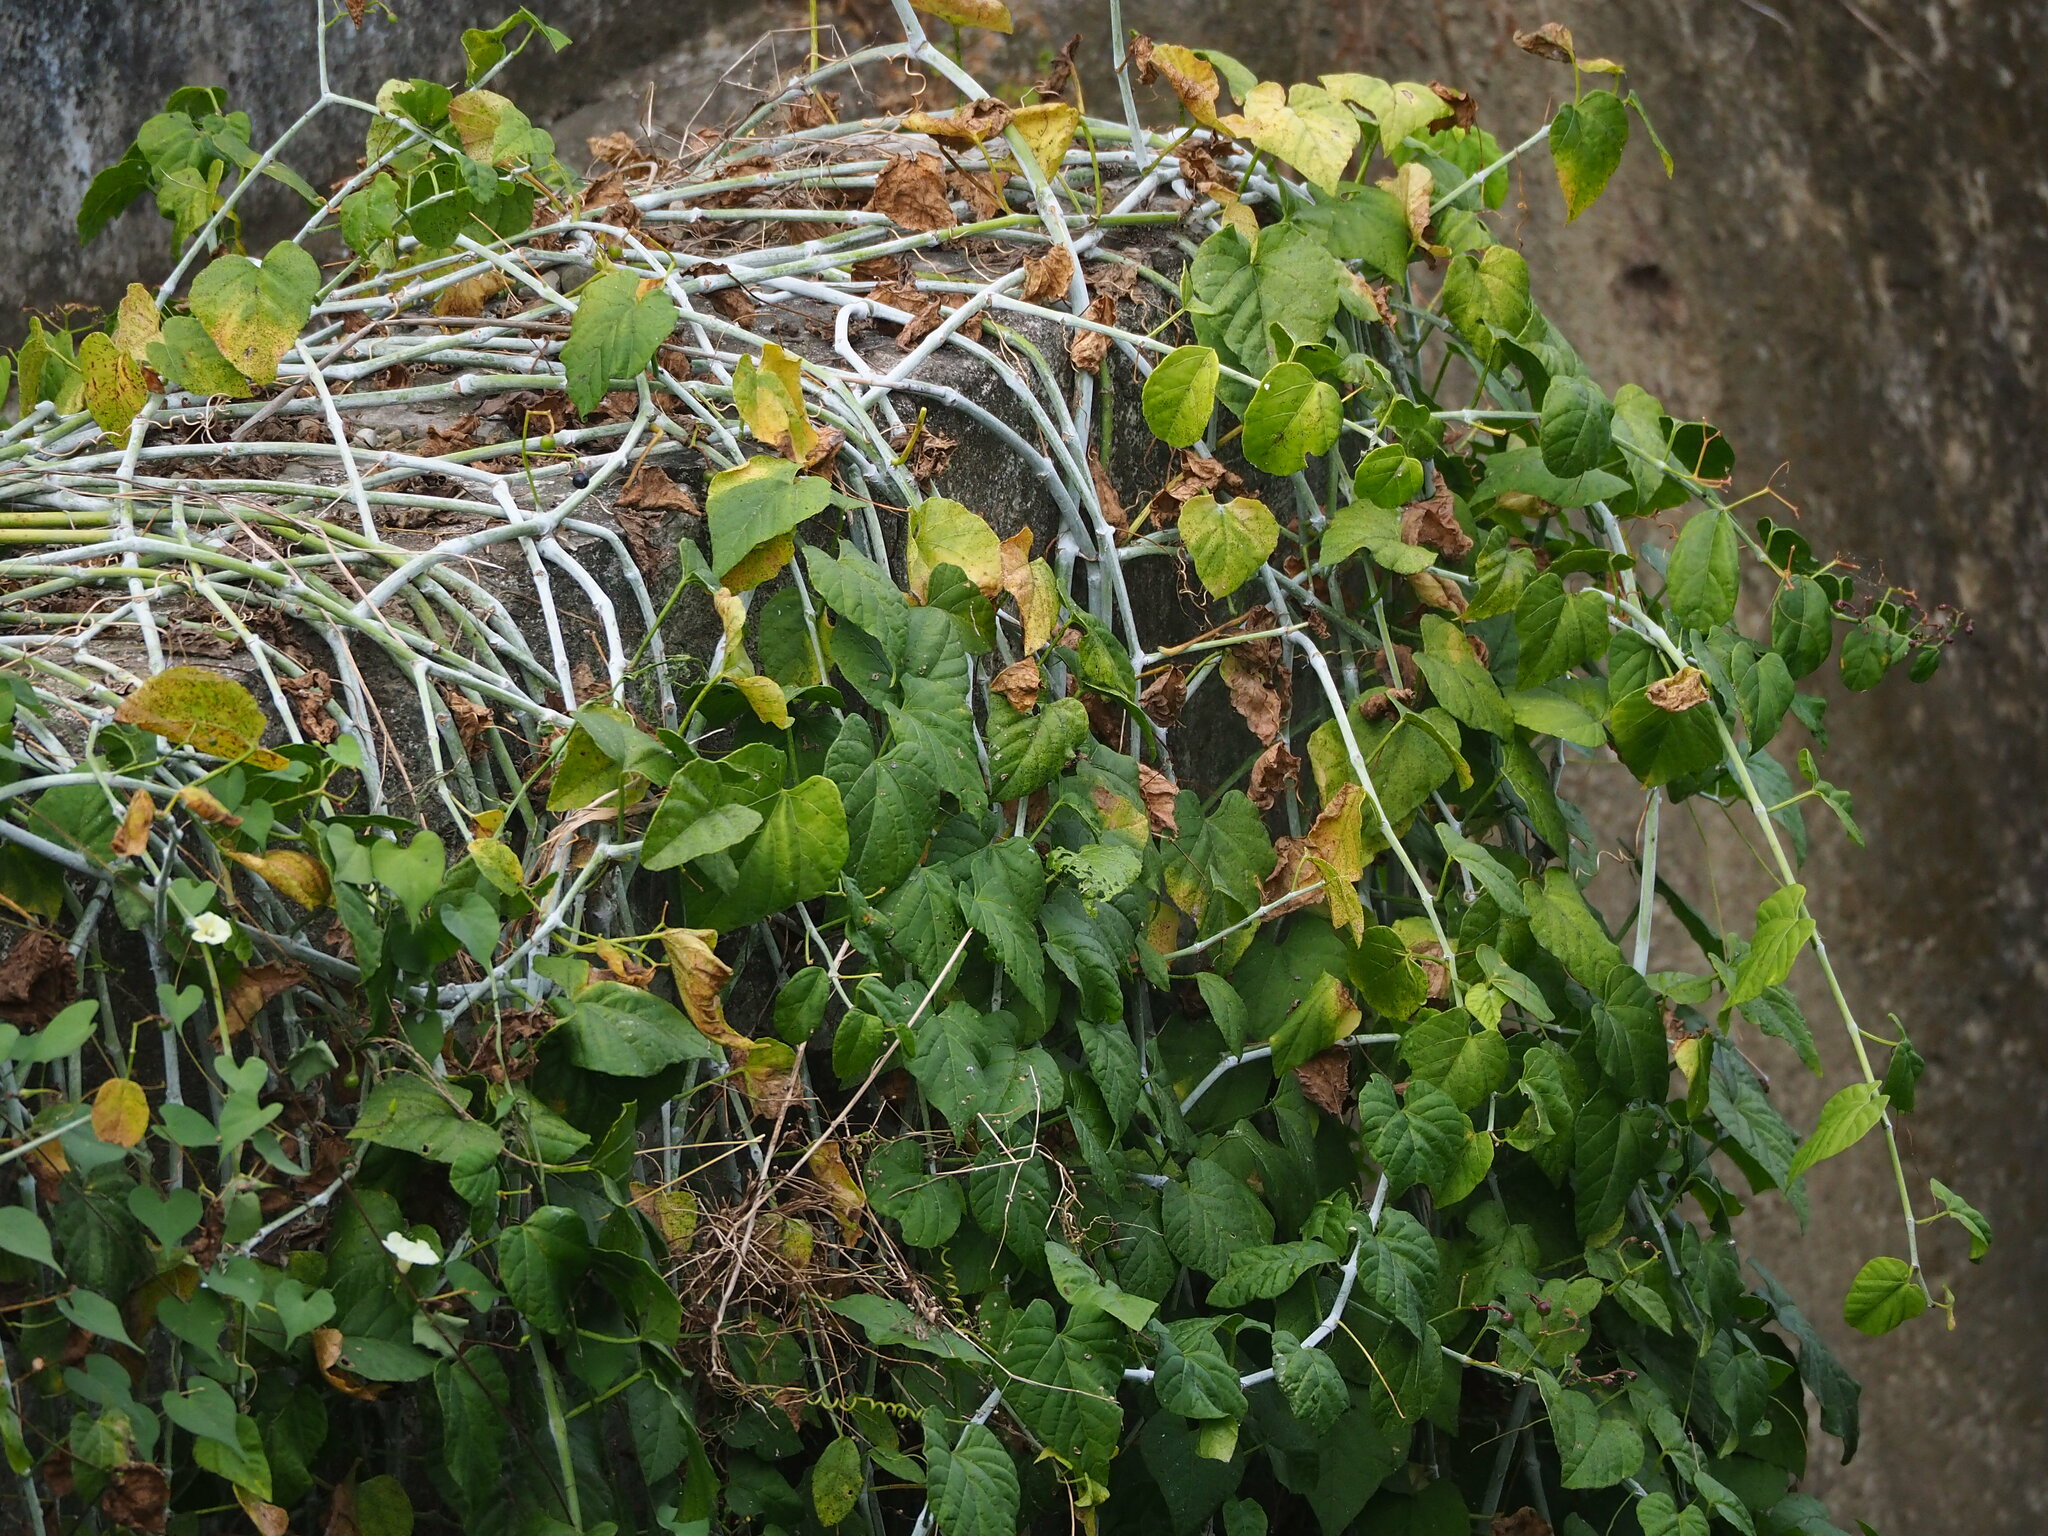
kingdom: Plantae
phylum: Tracheophyta
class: Magnoliopsida
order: Vitales
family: Vitaceae
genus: Cissus
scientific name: Cissus modeccoides
